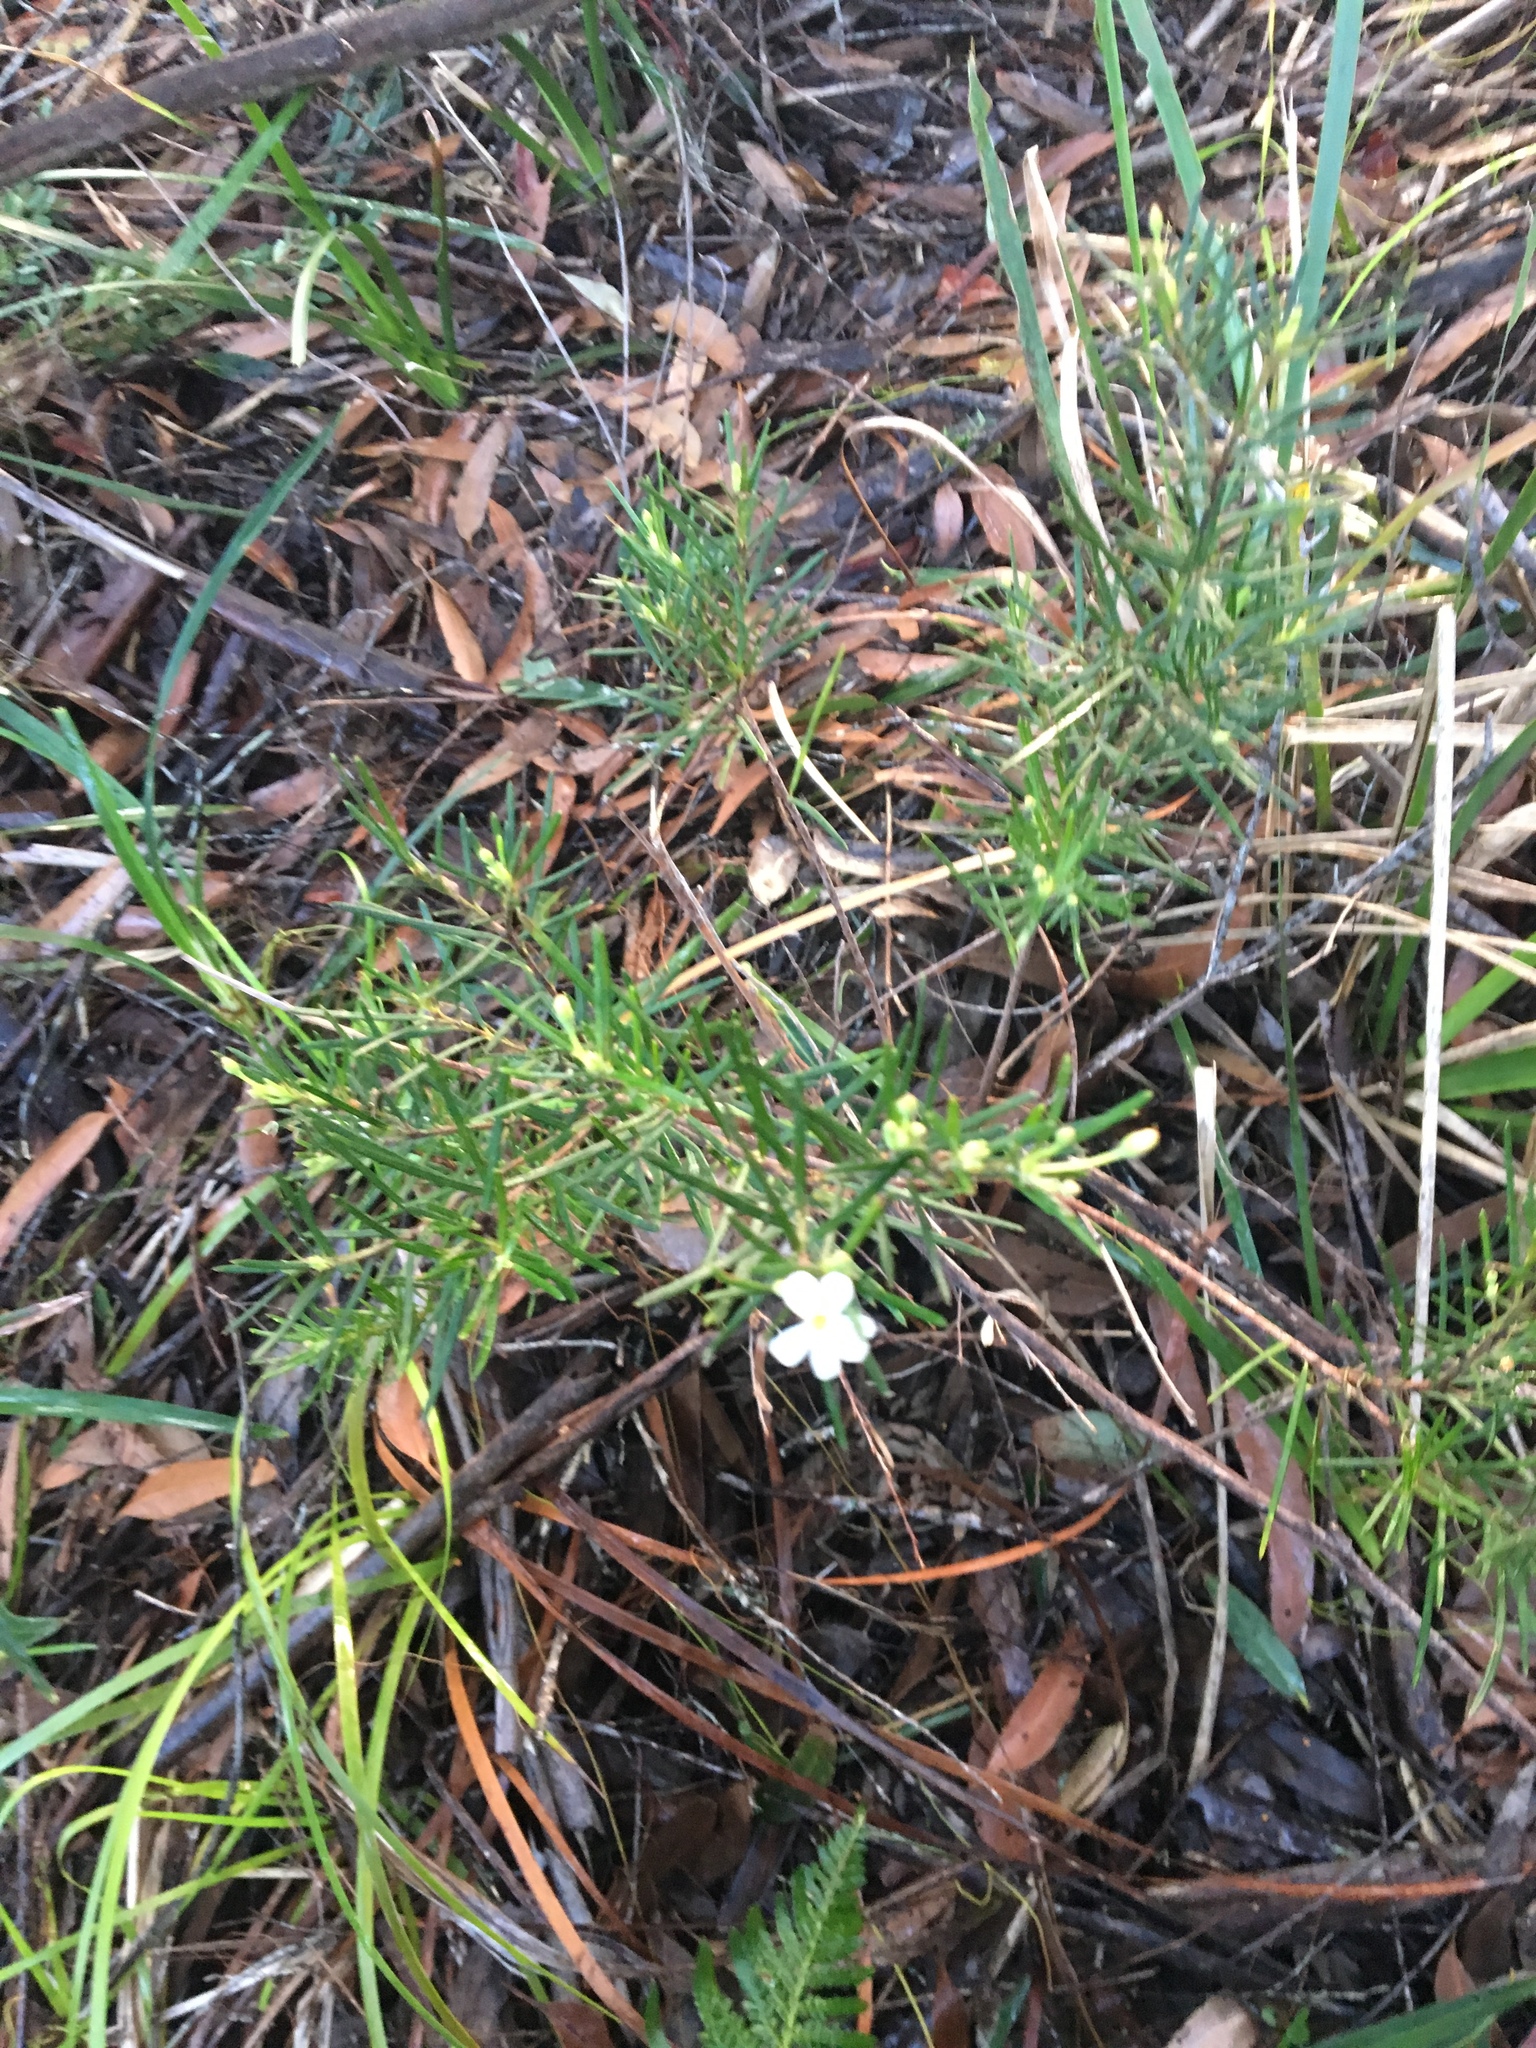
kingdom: Plantae
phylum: Tracheophyta
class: Magnoliopsida
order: Malpighiales
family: Euphorbiaceae
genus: Ricinocarpos
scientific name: Ricinocarpos pinifolius
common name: Weddingbush
